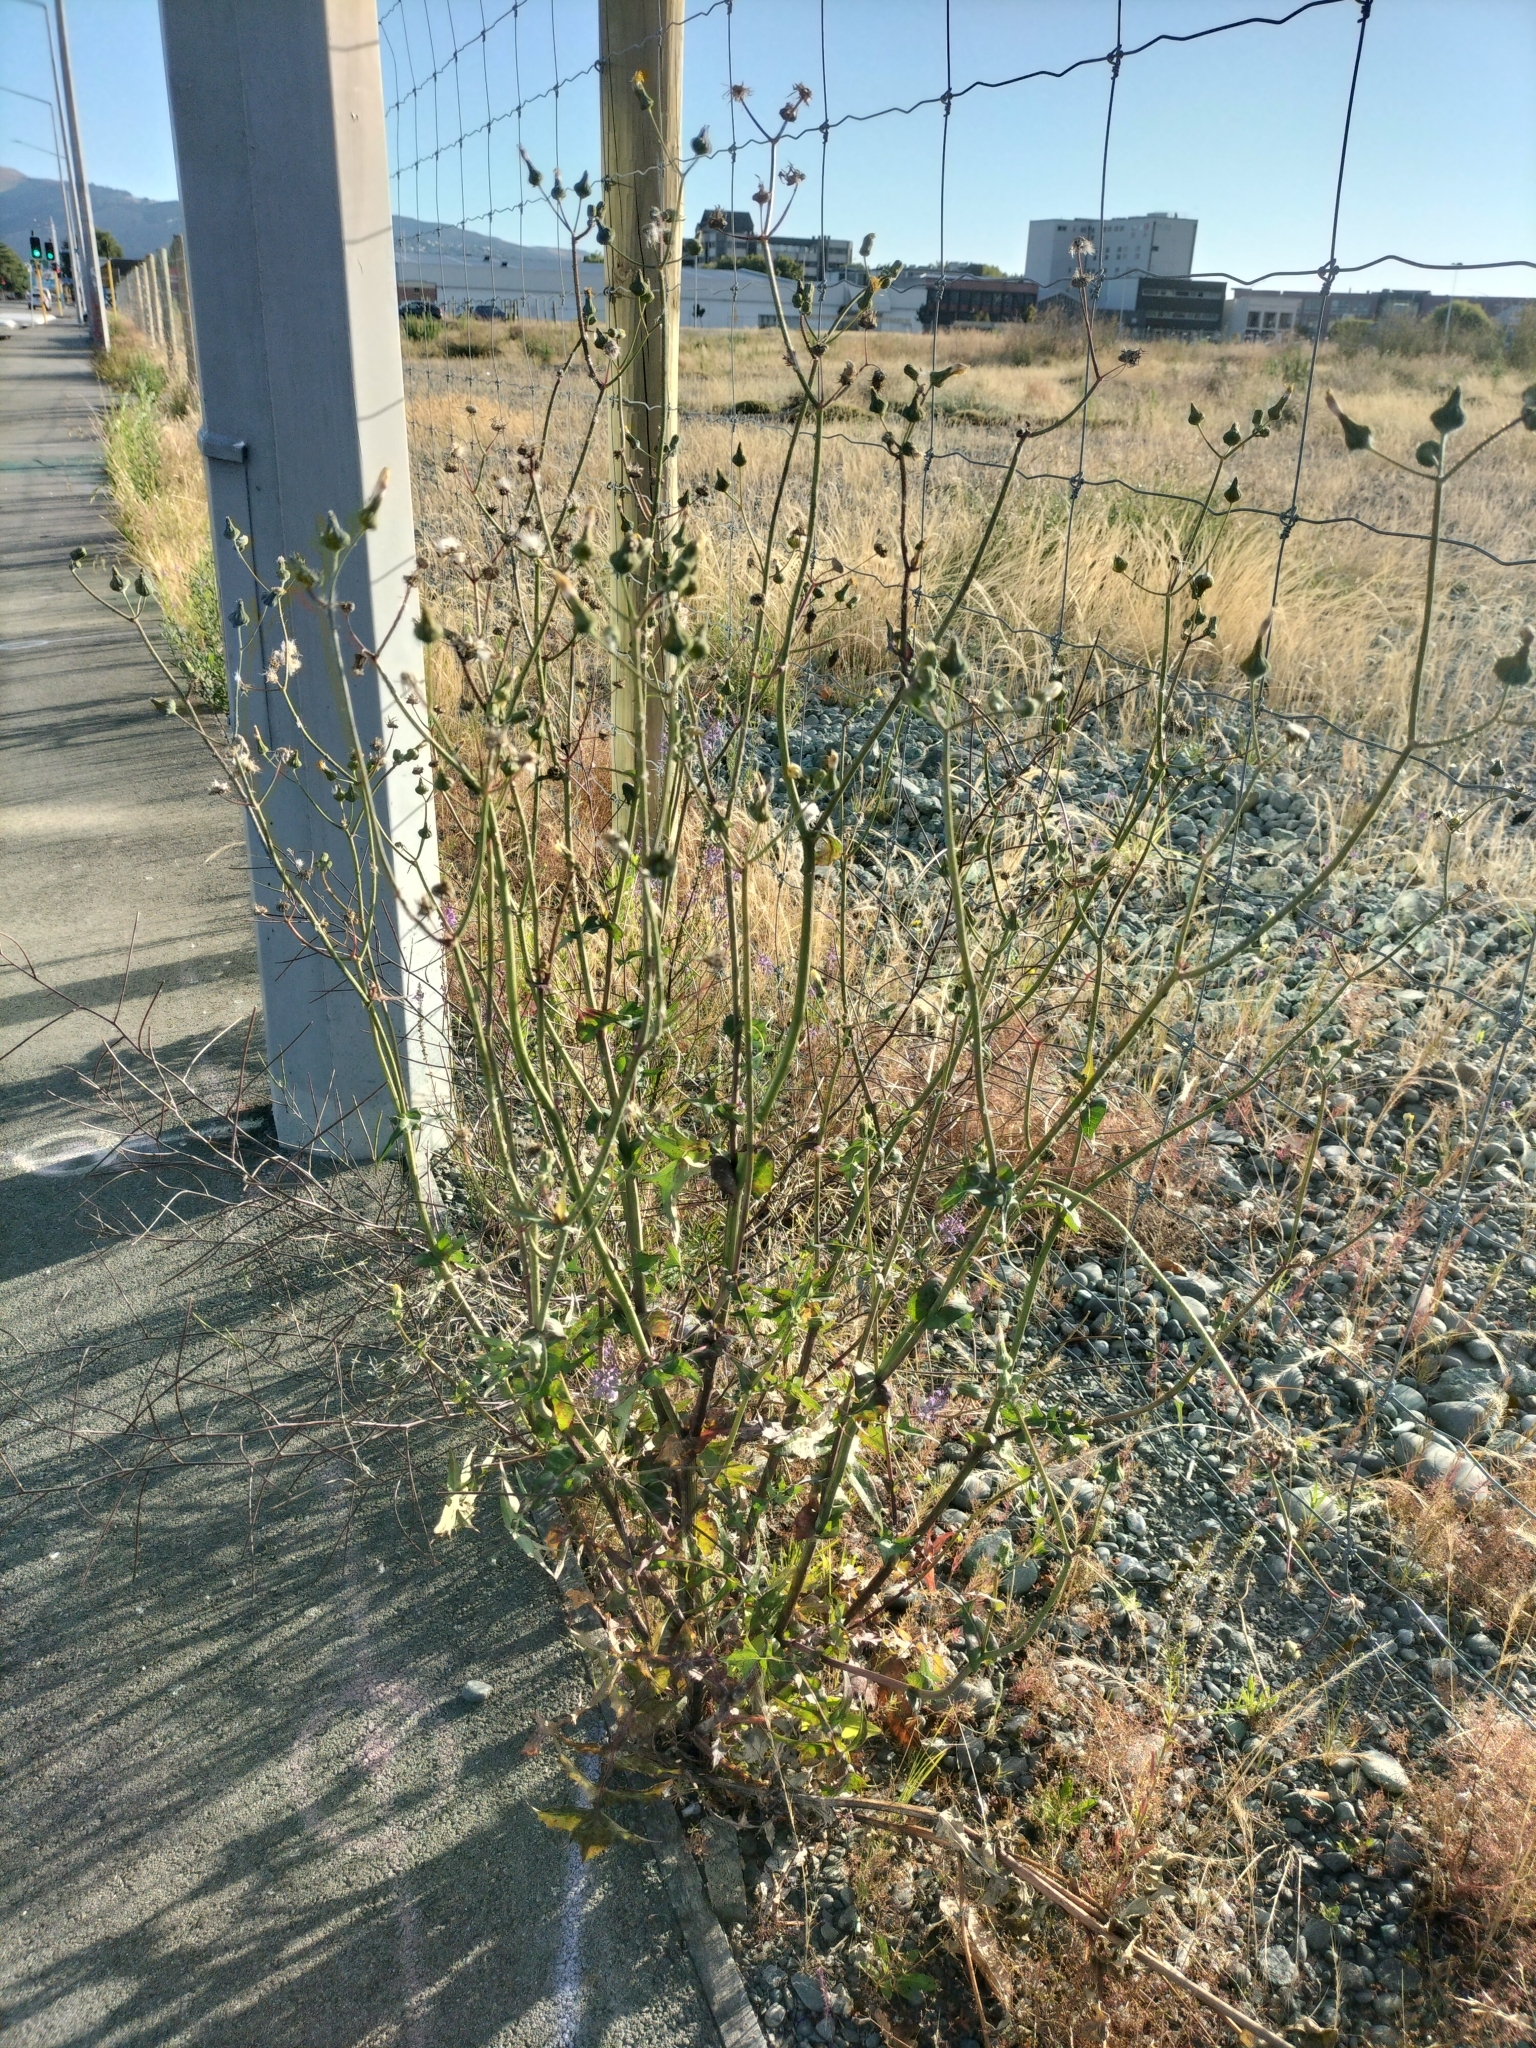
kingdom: Plantae
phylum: Tracheophyta
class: Magnoliopsida
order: Asterales
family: Asteraceae
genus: Sonchus
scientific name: Sonchus asper
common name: Prickly sow-thistle
